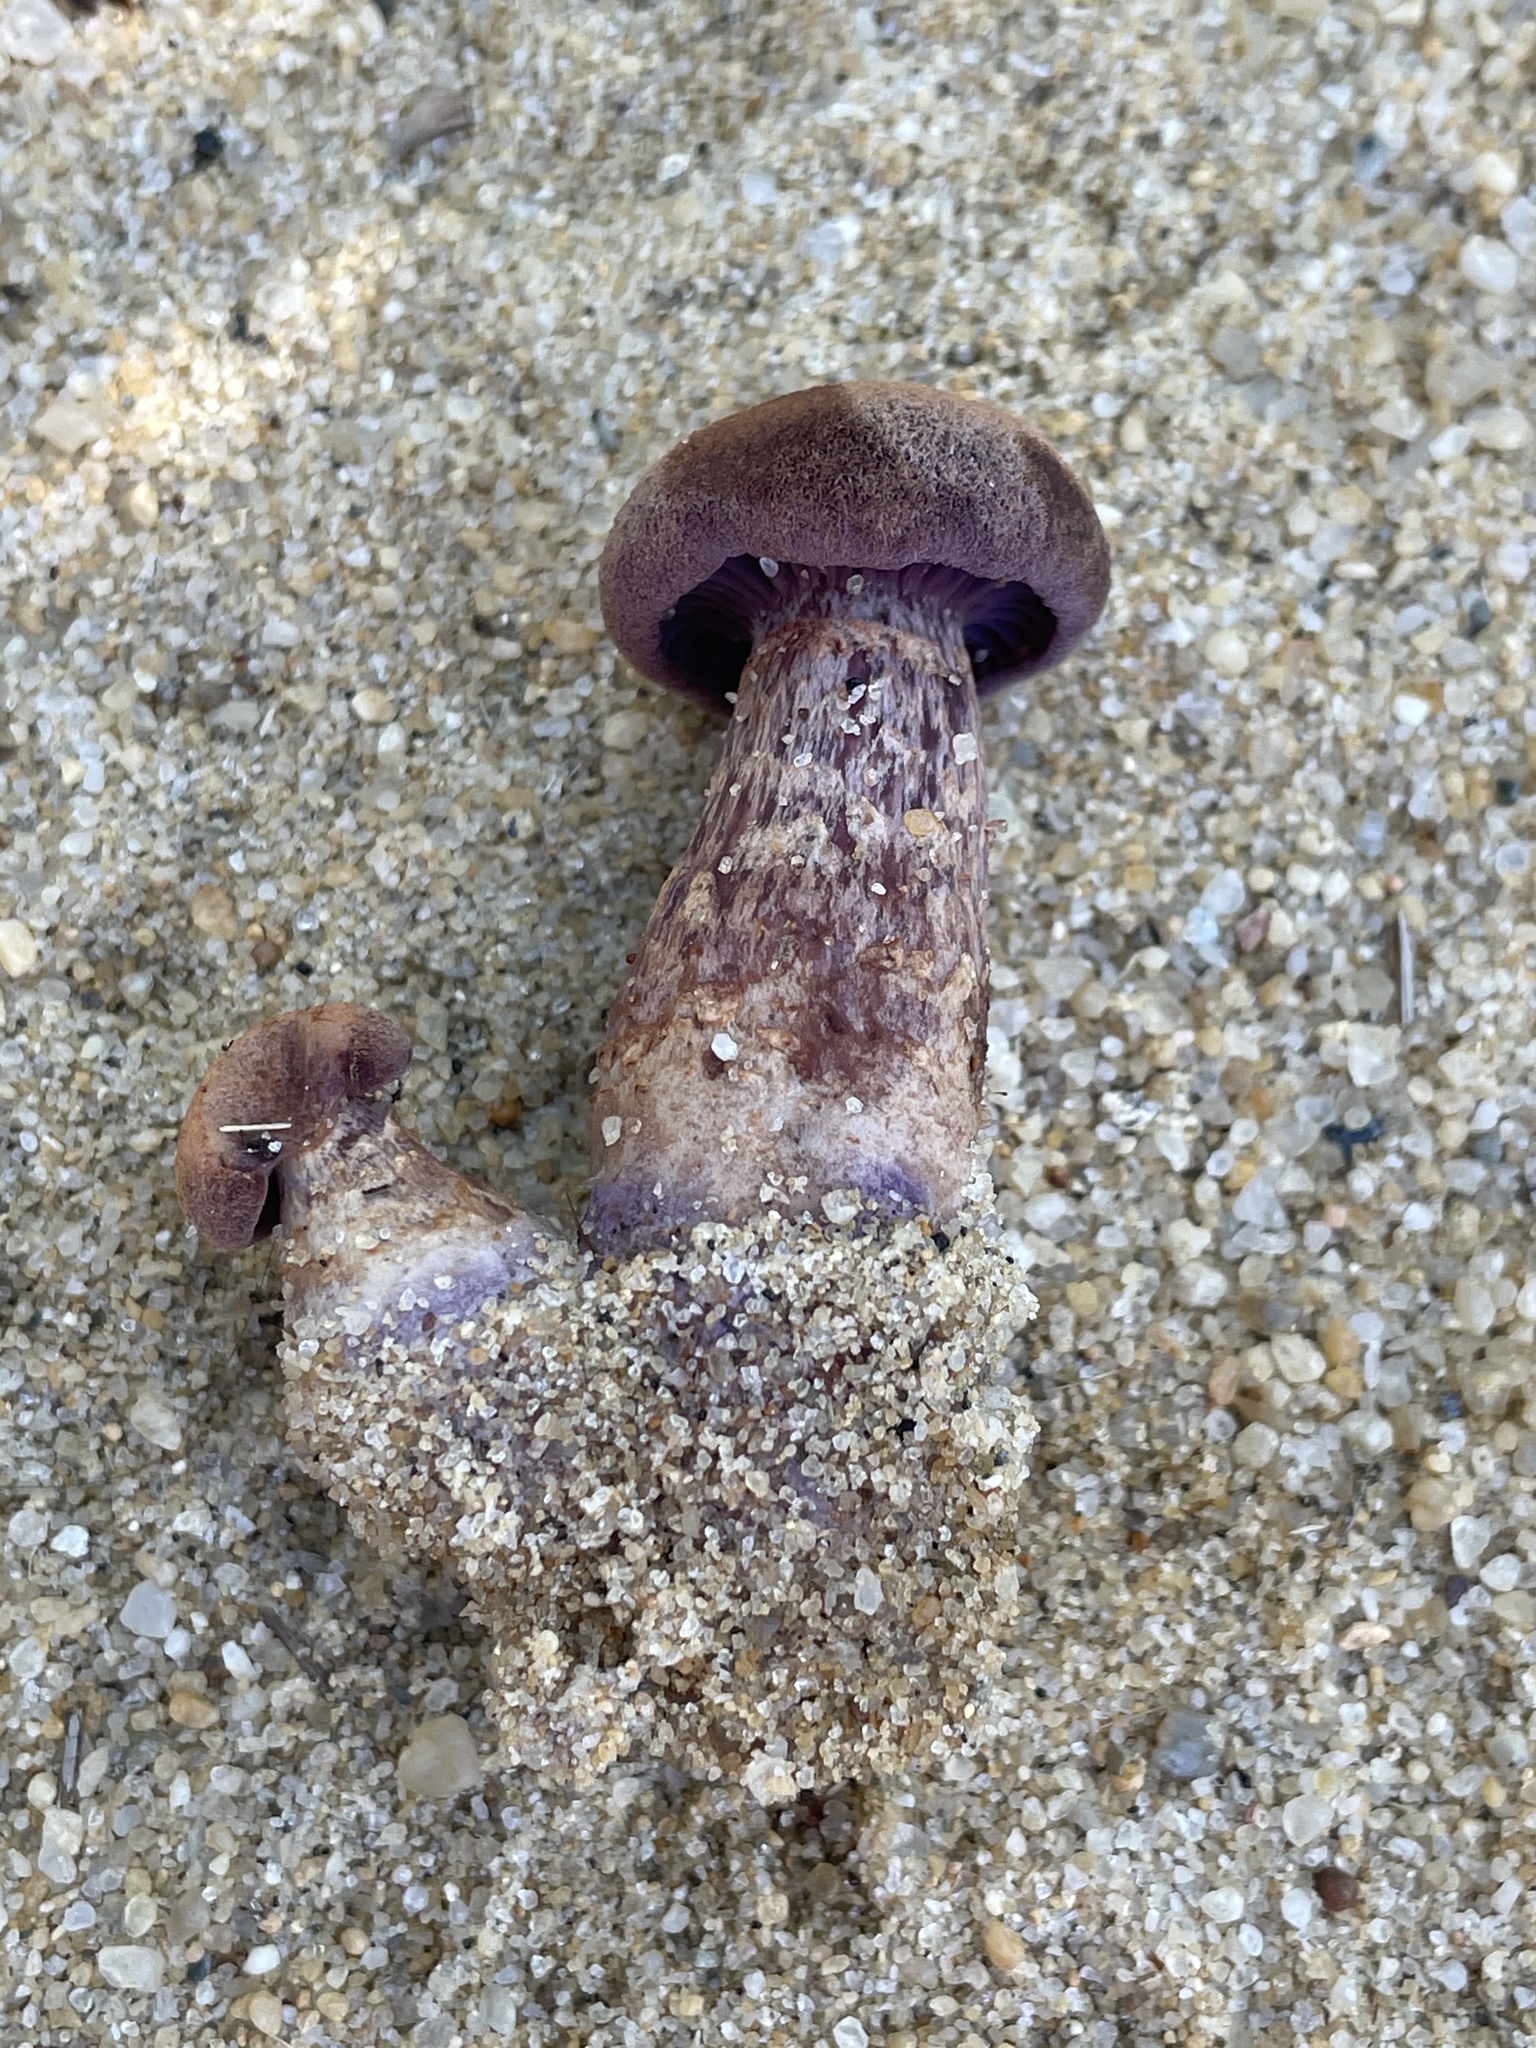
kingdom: Fungi
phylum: Basidiomycota
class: Agaricomycetes
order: Agaricales
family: Hydnangiaceae
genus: Laccaria
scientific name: Laccaria trullissata
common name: Sandy laccaria
